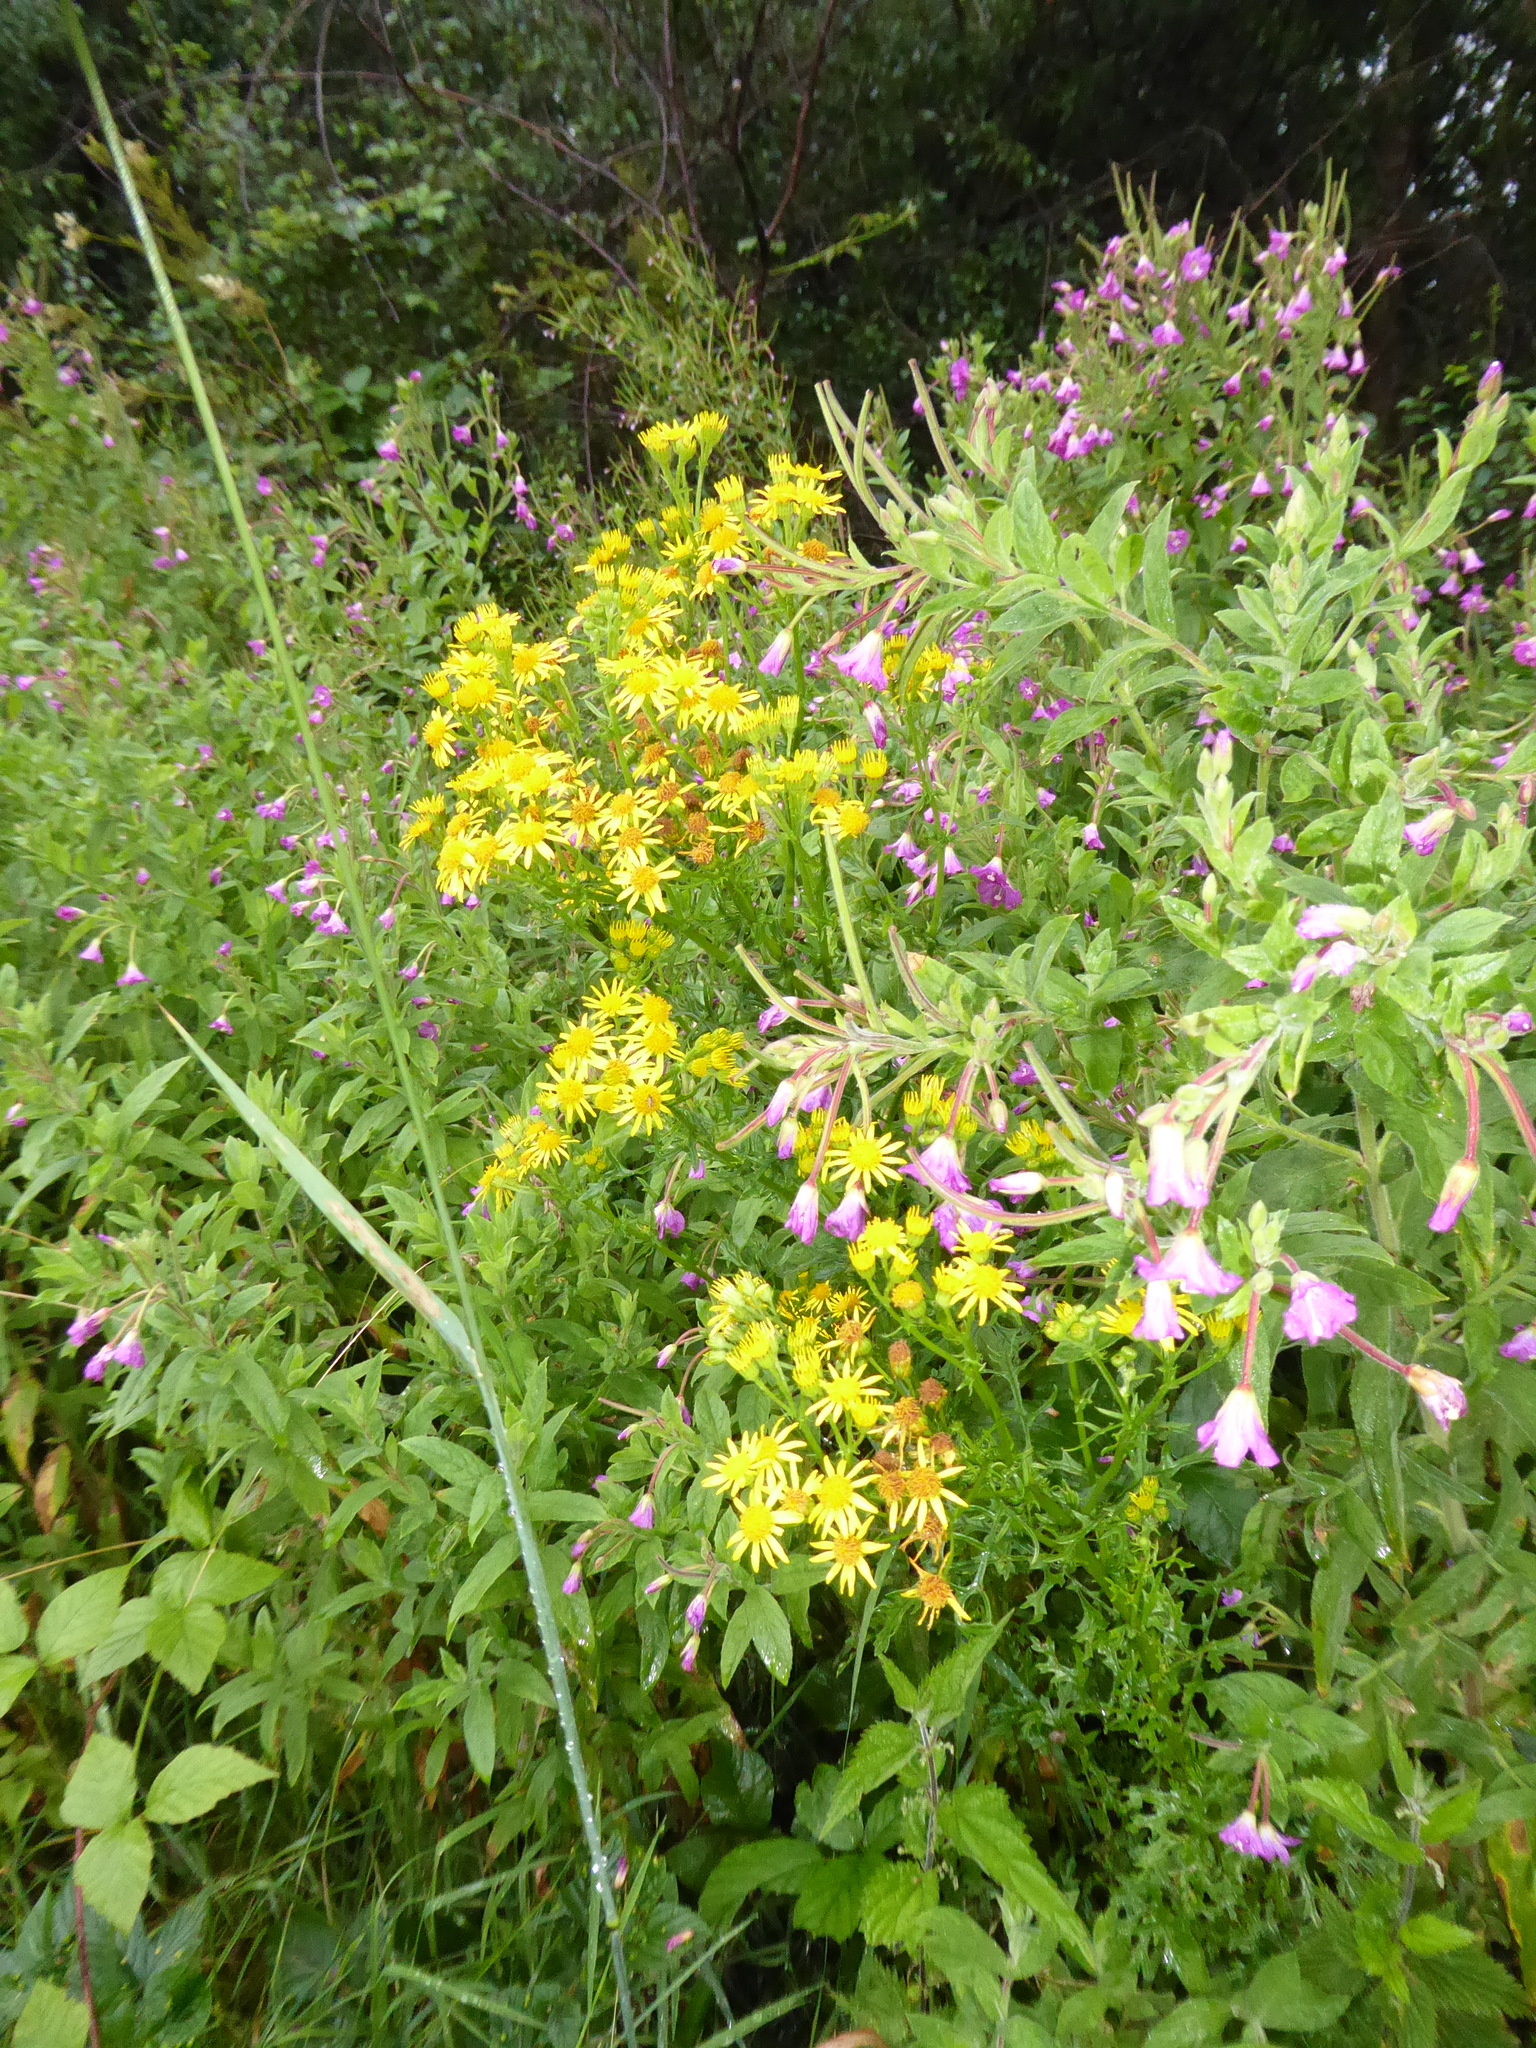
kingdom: Plantae
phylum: Tracheophyta
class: Magnoliopsida
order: Asterales
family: Asteraceae
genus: Jacobaea
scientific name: Jacobaea vulgaris
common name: Stinking willie
